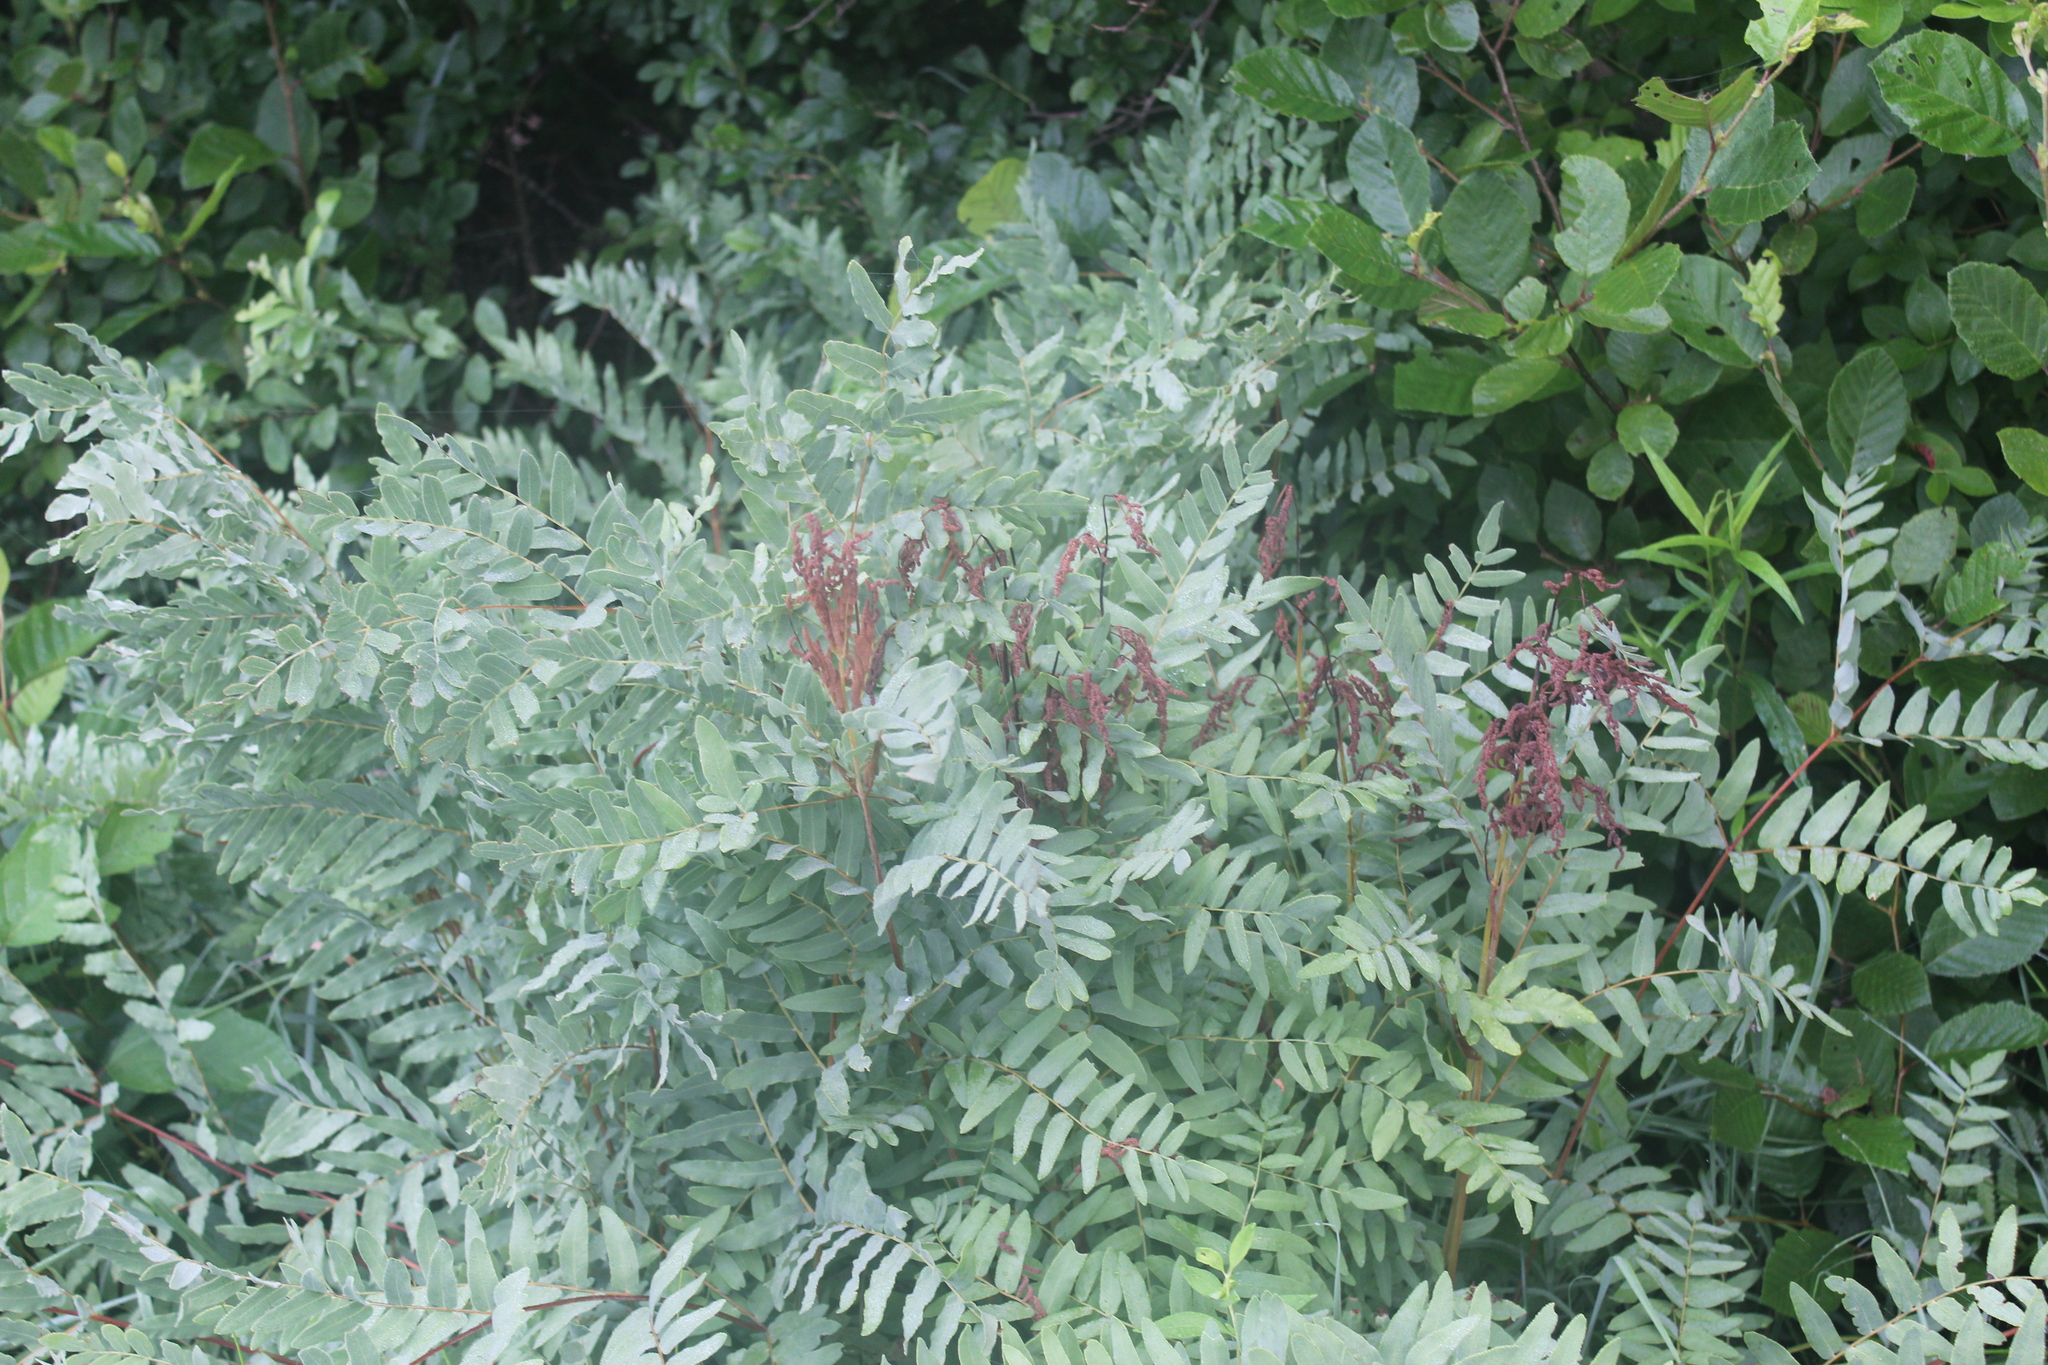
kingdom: Plantae
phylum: Tracheophyta
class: Polypodiopsida
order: Osmundales
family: Osmundaceae
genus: Osmunda
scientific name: Osmunda spectabilis
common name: American royal fern
